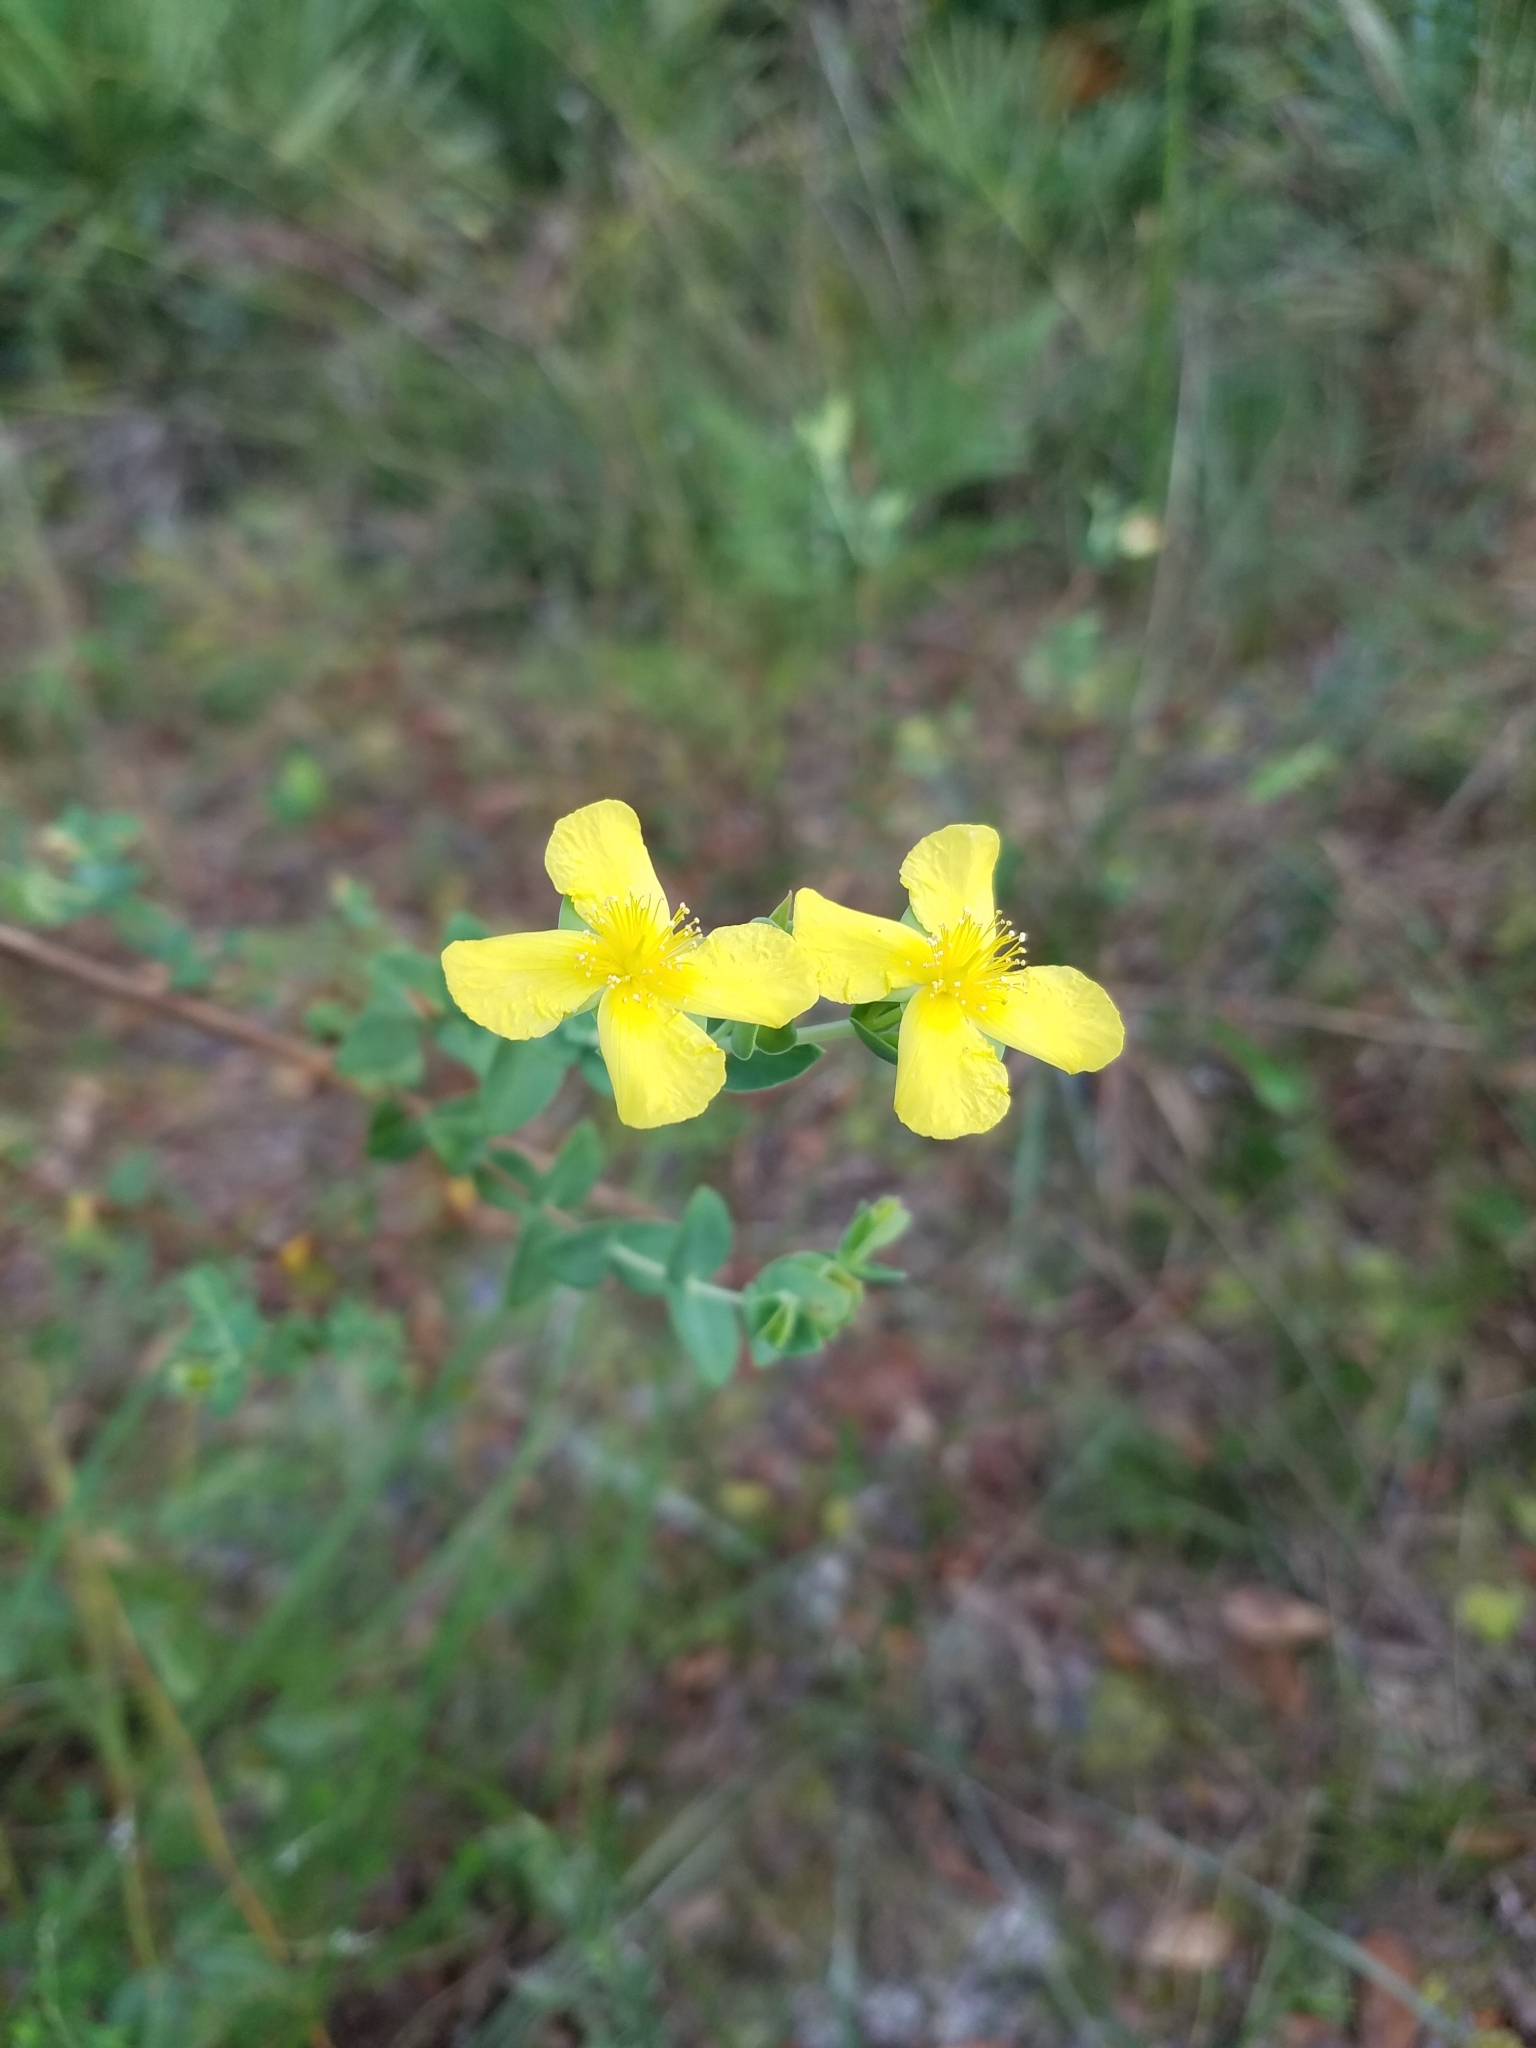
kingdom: Plantae
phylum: Tracheophyta
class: Magnoliopsida
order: Malpighiales
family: Hypericaceae
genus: Hypericum
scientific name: Hypericum tetrapetalum
